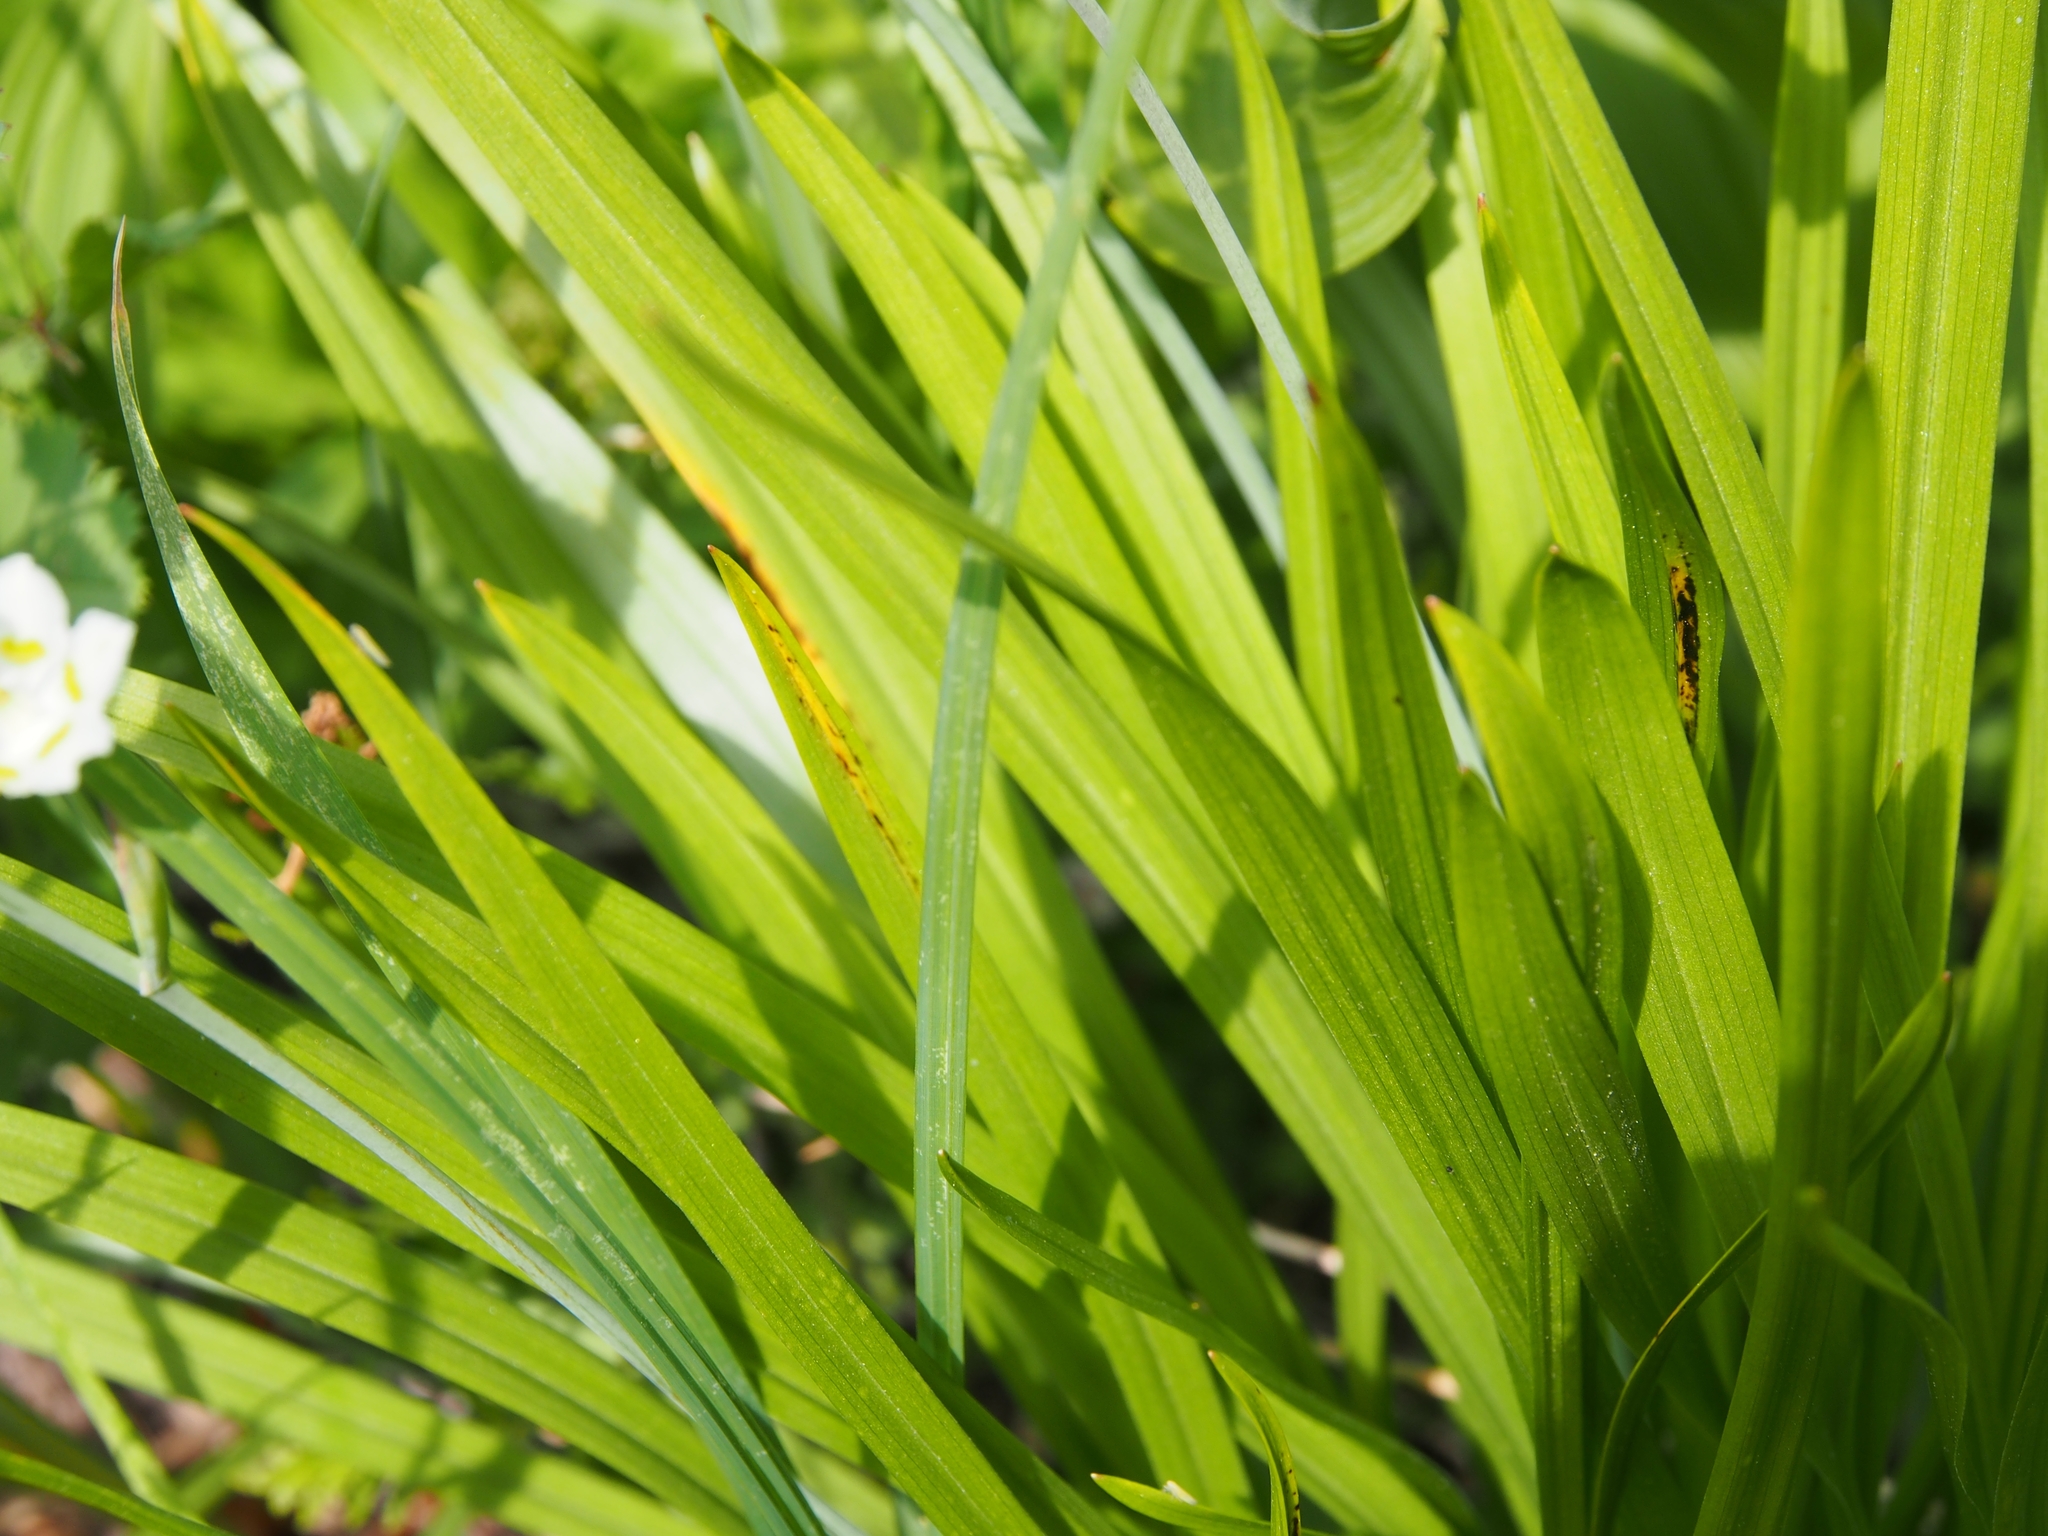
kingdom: Plantae
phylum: Tracheophyta
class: Liliopsida
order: Liliales
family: Melanthiaceae
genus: Anticlea
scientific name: Anticlea elegans
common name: Mountain death camas
